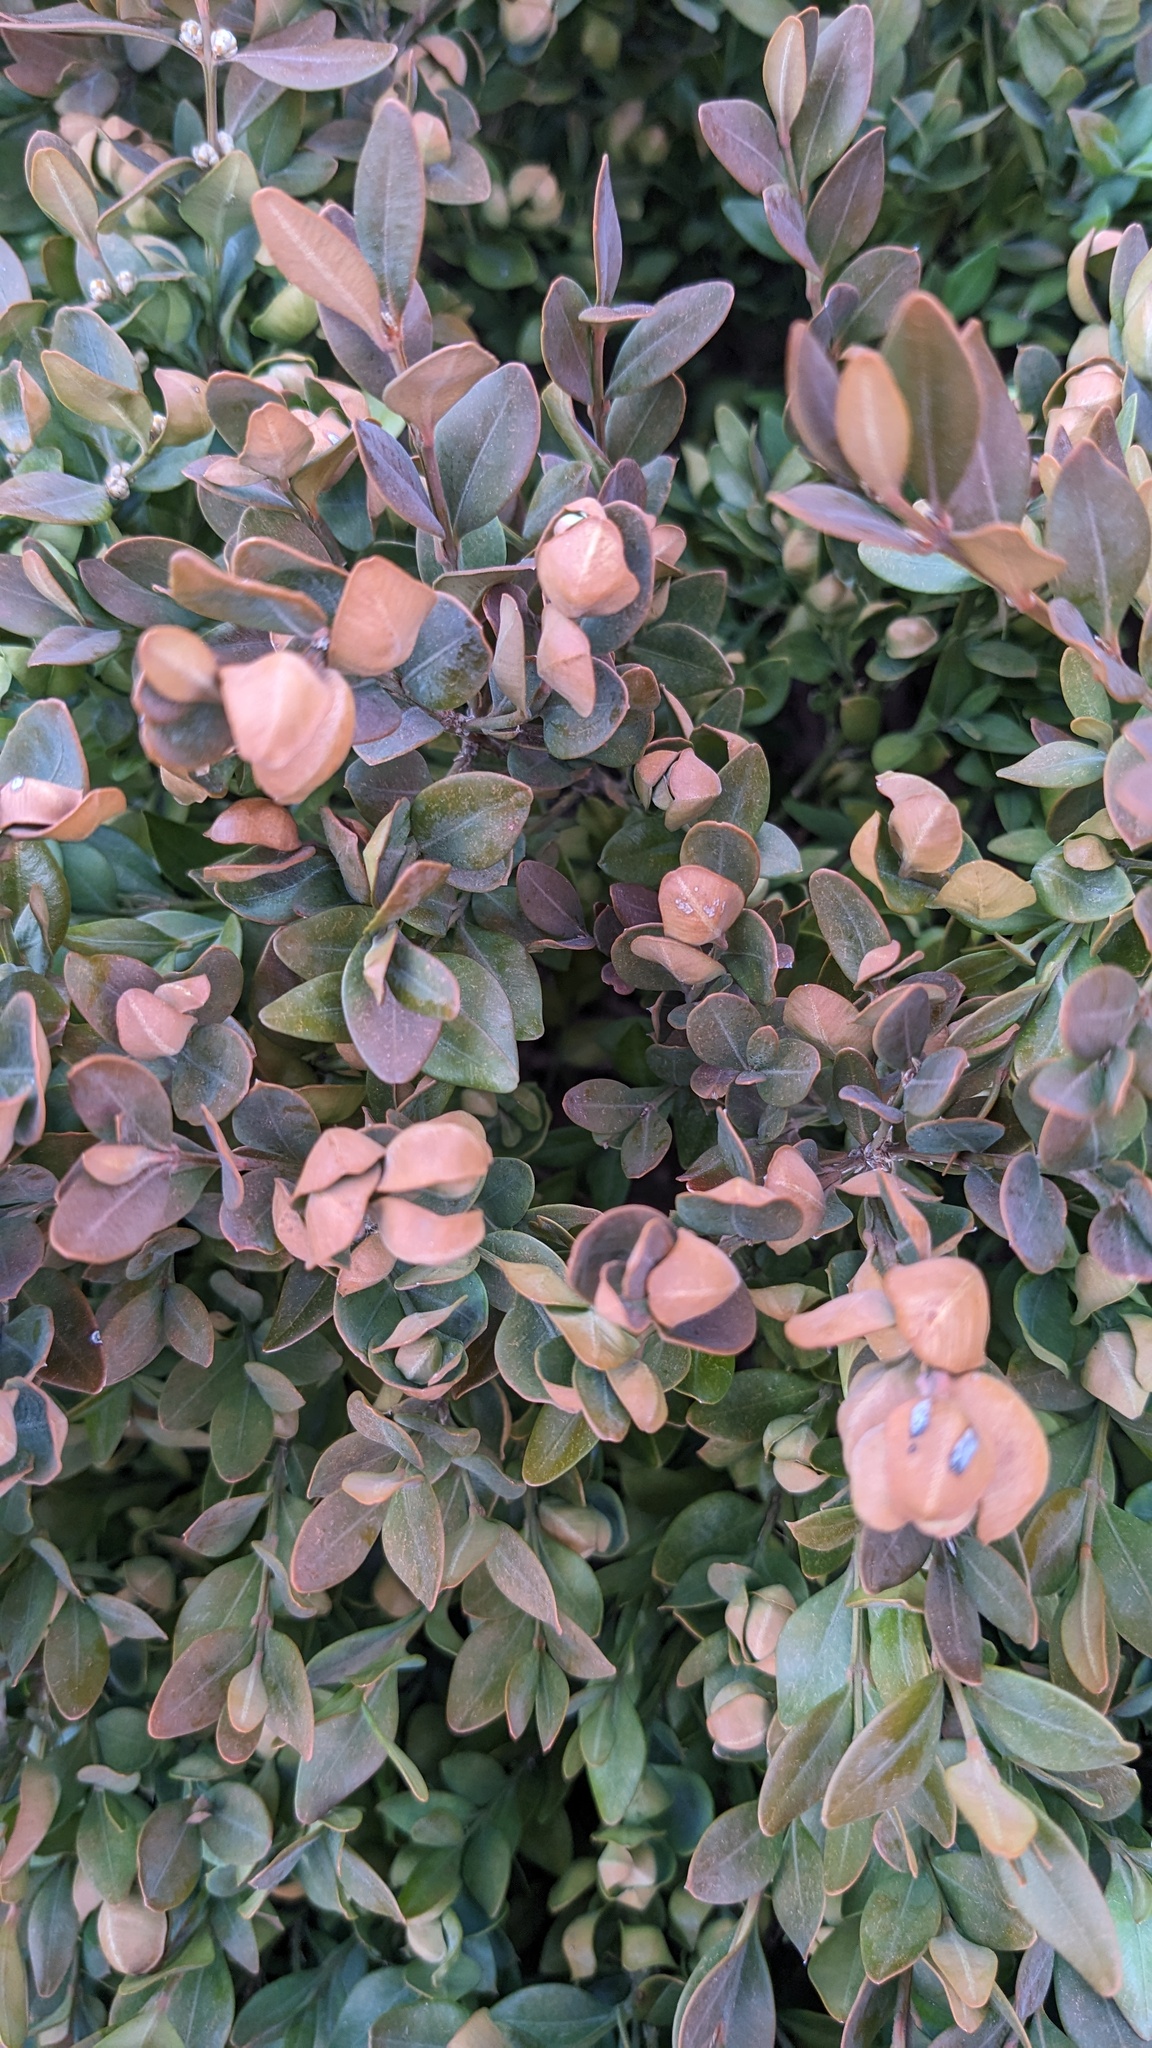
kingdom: Animalia
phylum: Arthropoda
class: Insecta
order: Hemiptera
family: Psyllidae
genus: Psylla
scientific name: Psylla buxi
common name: Boxwood psyllid
